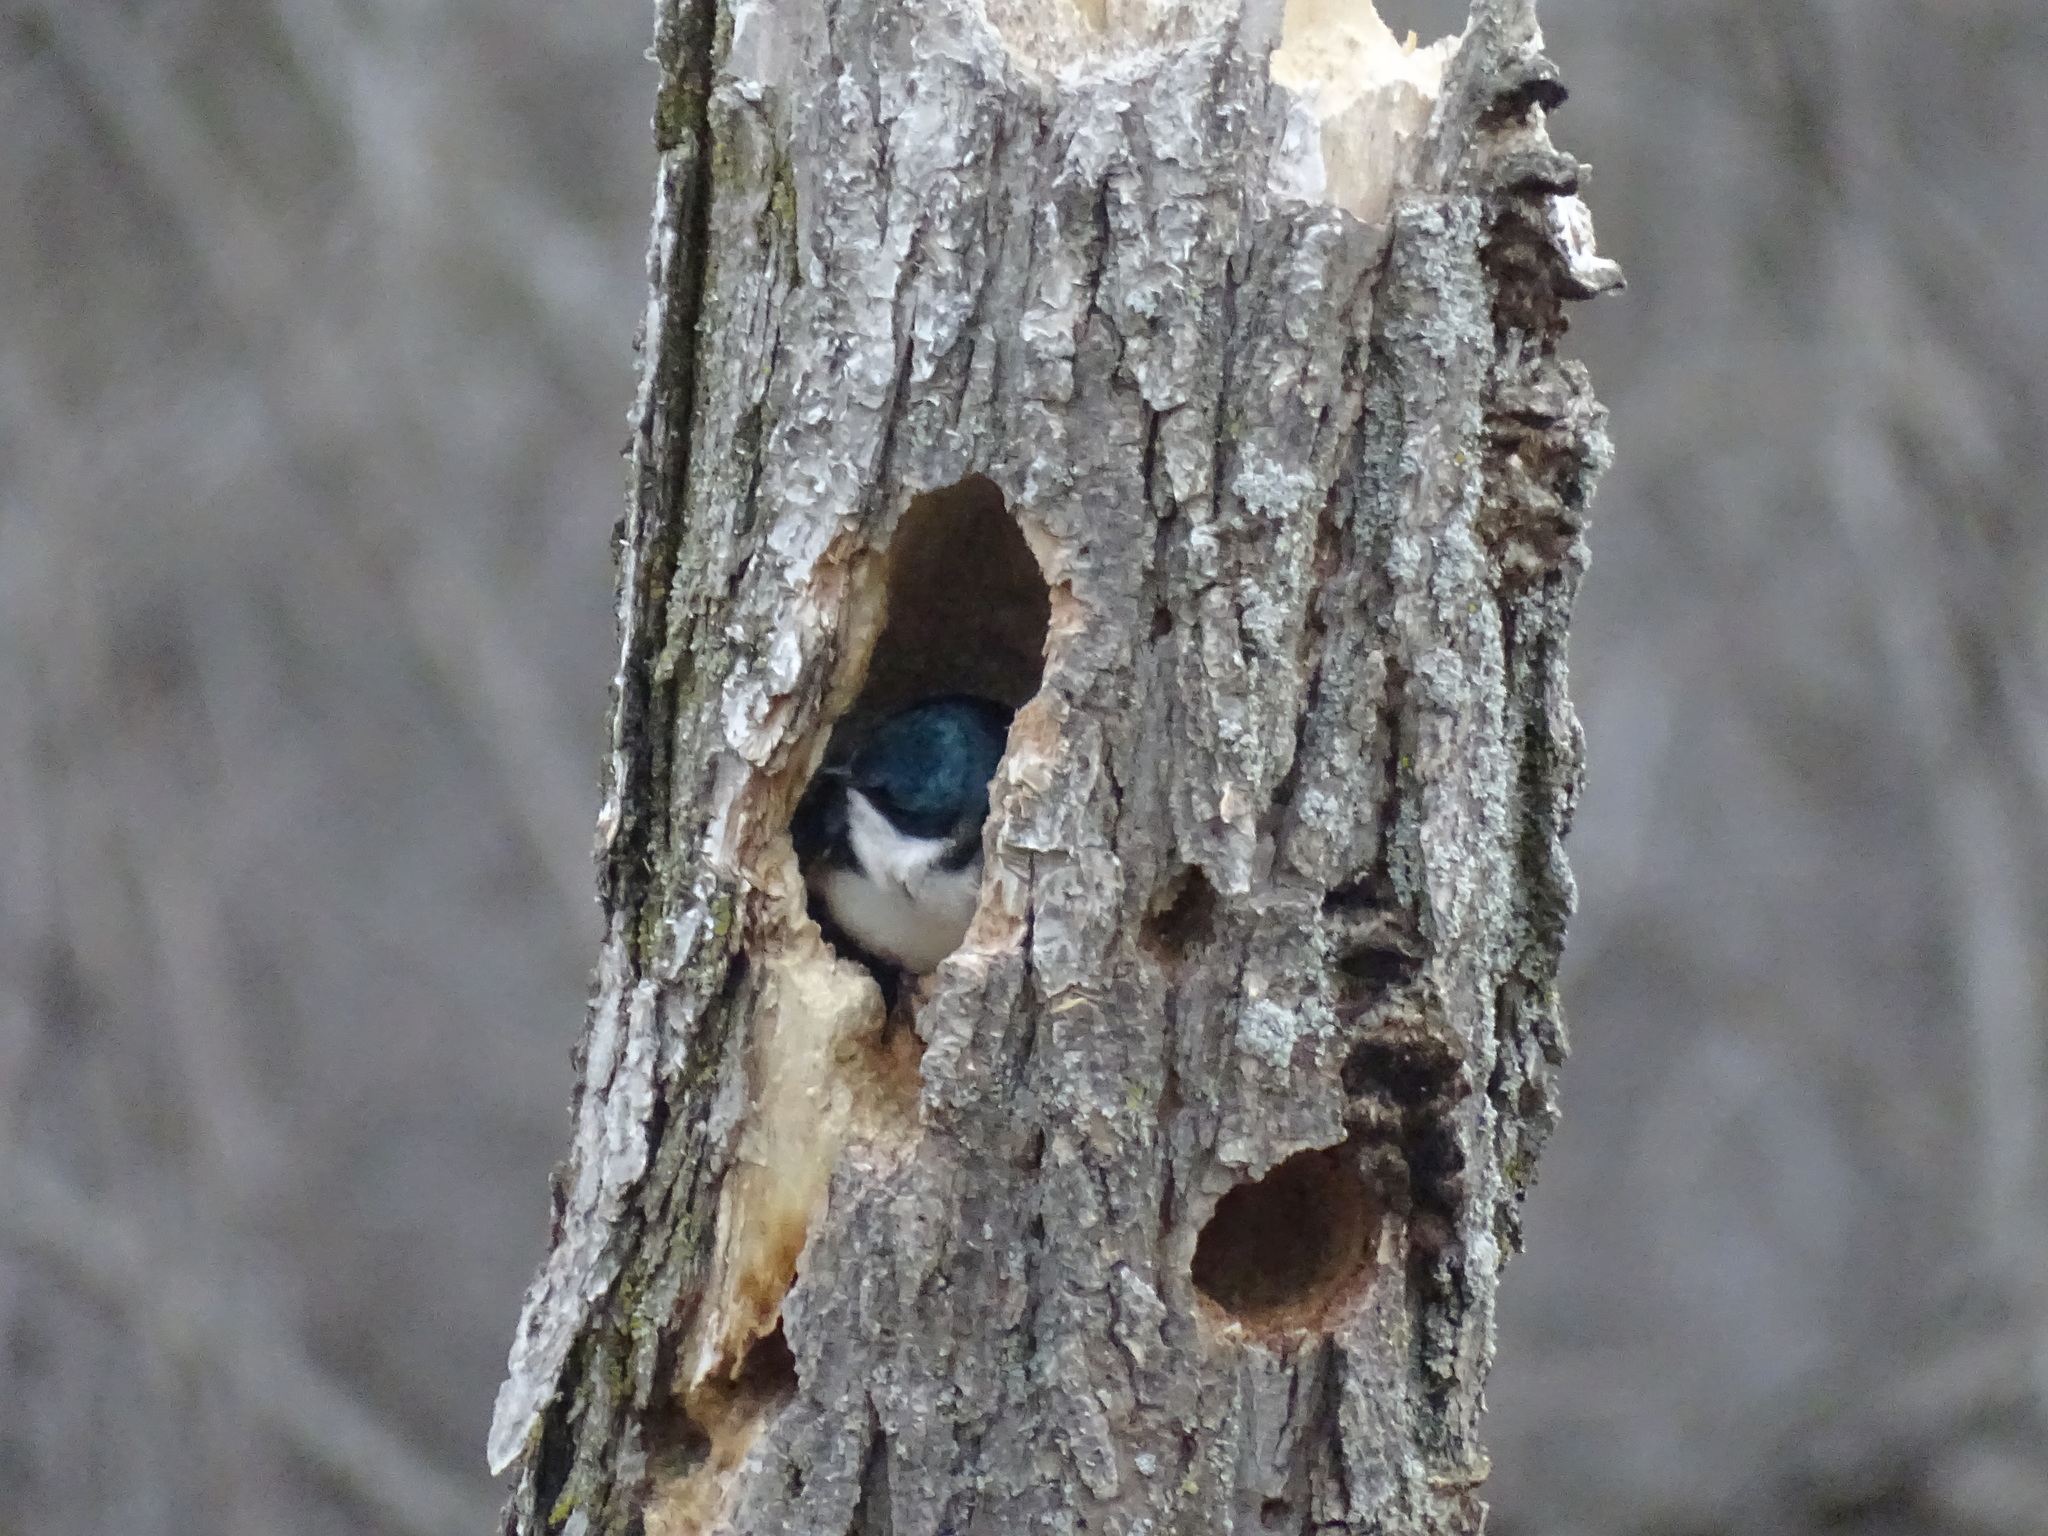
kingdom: Animalia
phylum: Chordata
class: Aves
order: Passeriformes
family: Hirundinidae
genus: Tachycineta
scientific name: Tachycineta bicolor
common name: Tree swallow
